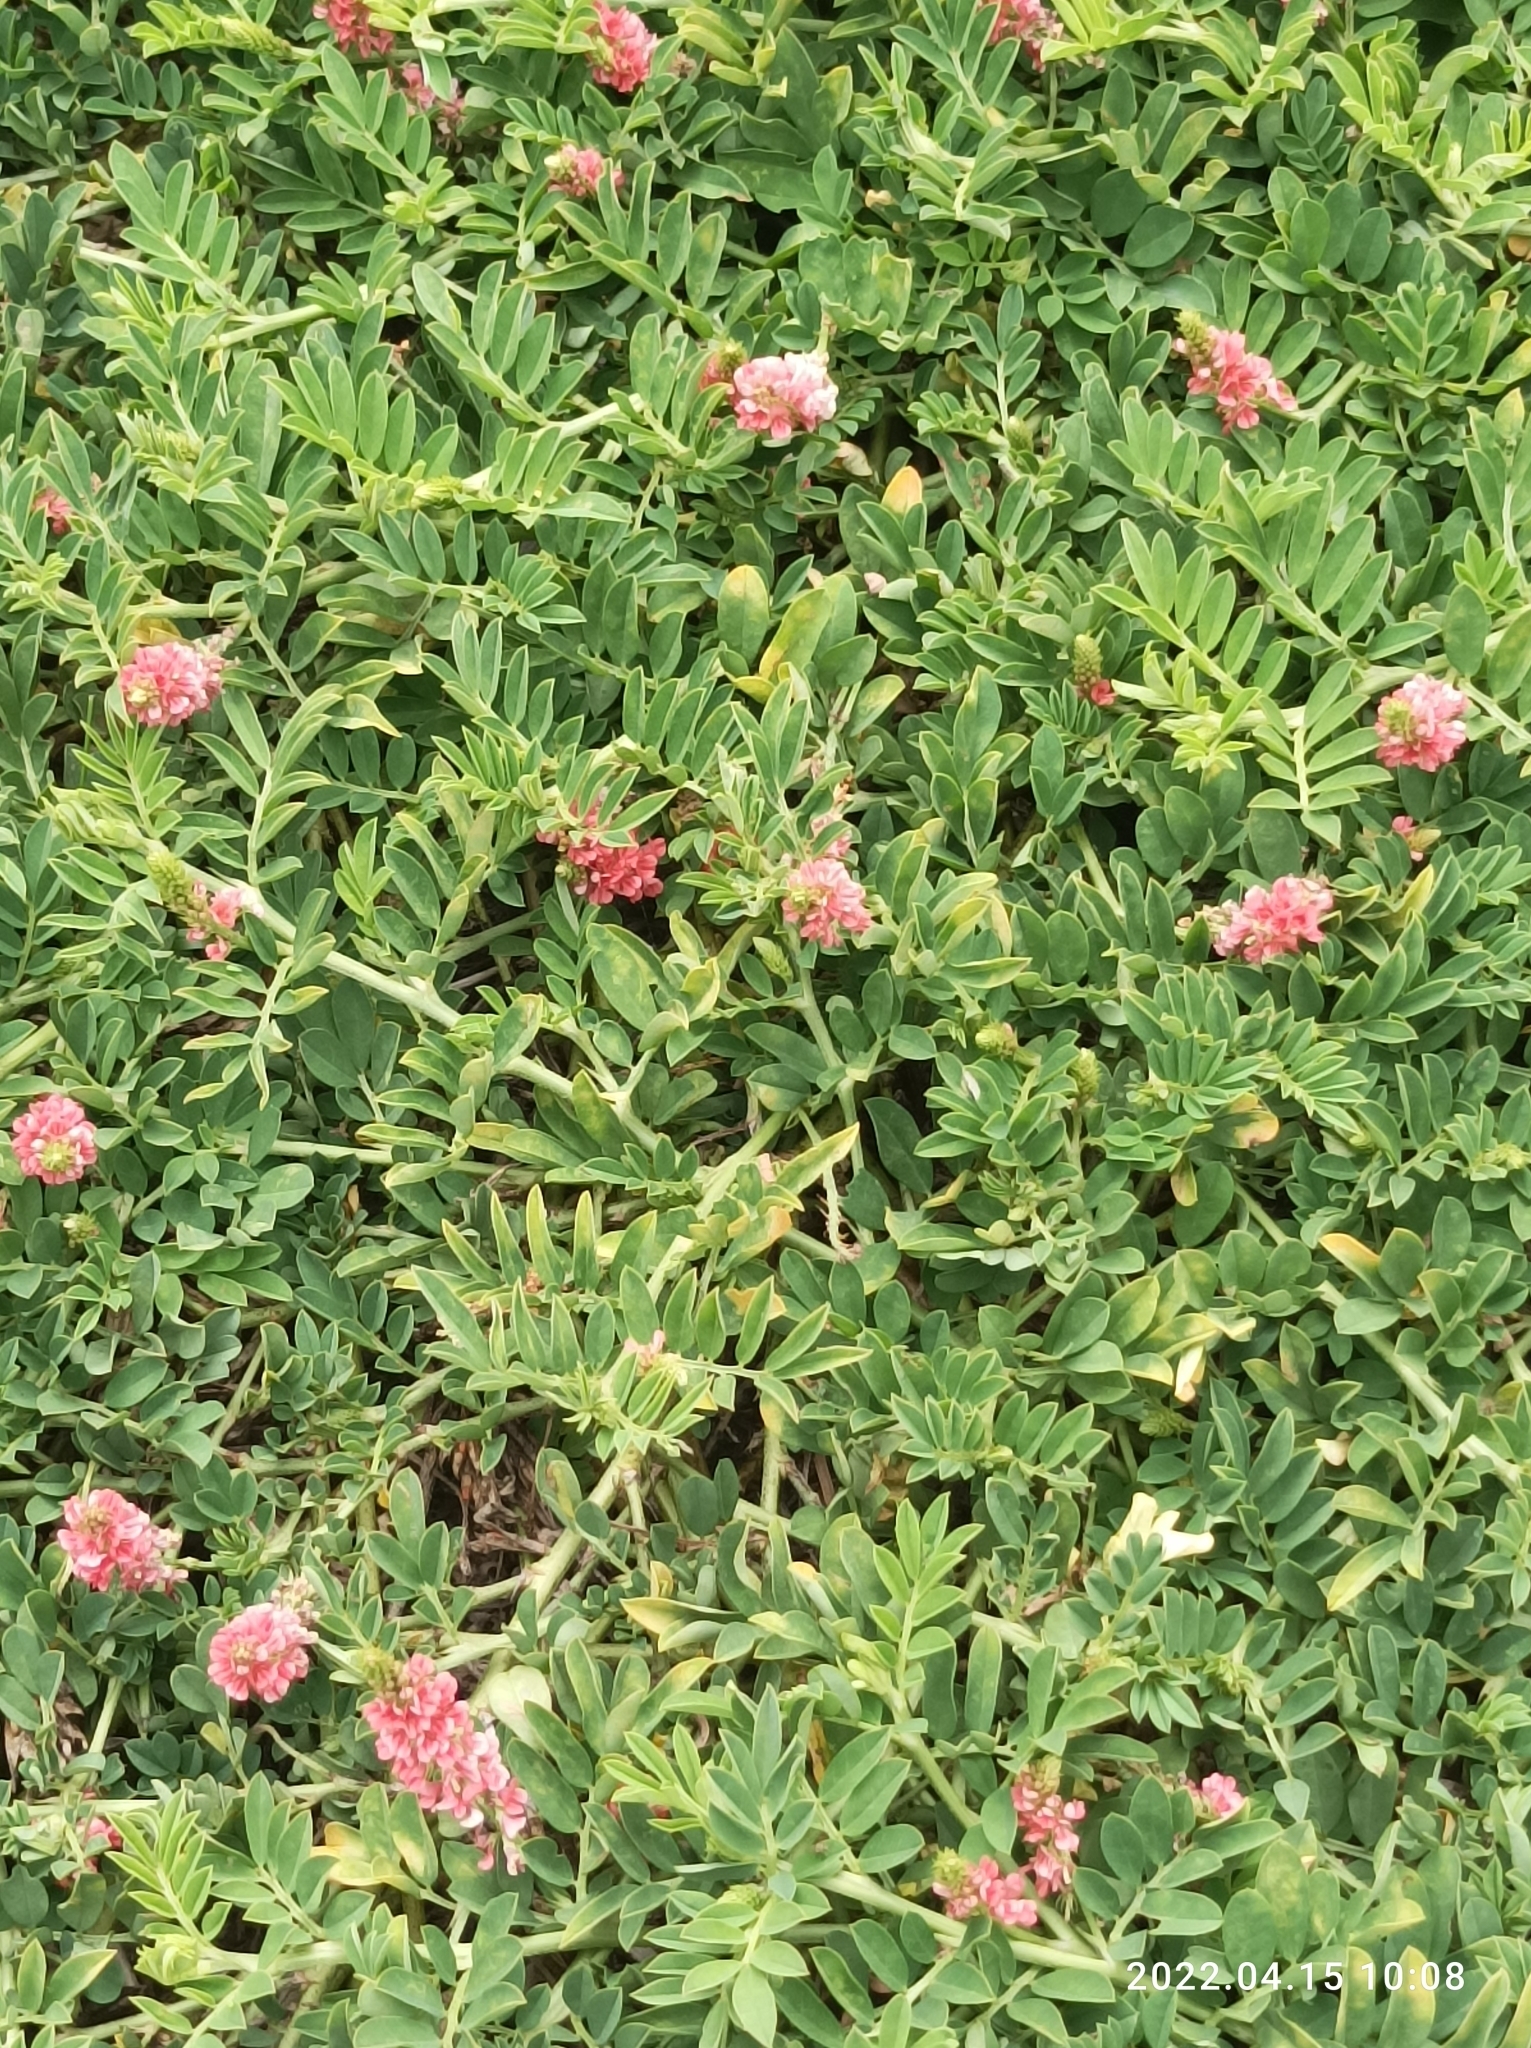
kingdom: Plantae
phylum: Tracheophyta
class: Magnoliopsida
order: Fabales
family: Fabaceae
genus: Indigofera
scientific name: Indigofera spicata
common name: Creeping indigo
